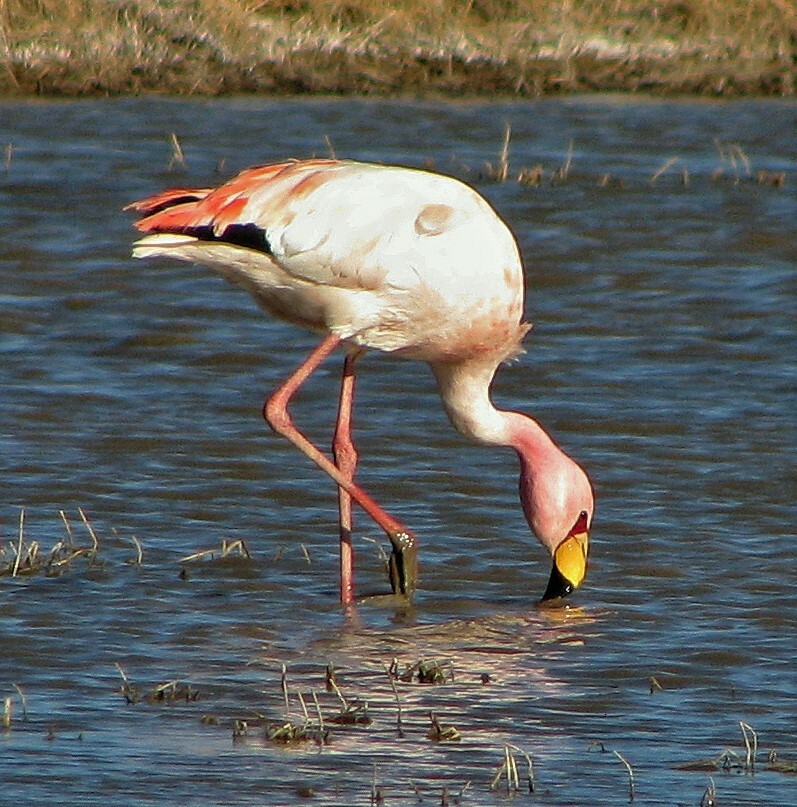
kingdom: Animalia
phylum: Chordata
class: Aves
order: Phoenicopteriformes
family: Phoenicopteridae
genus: Phoenicoparrus
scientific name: Phoenicoparrus jamesi
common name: James's flamingo
